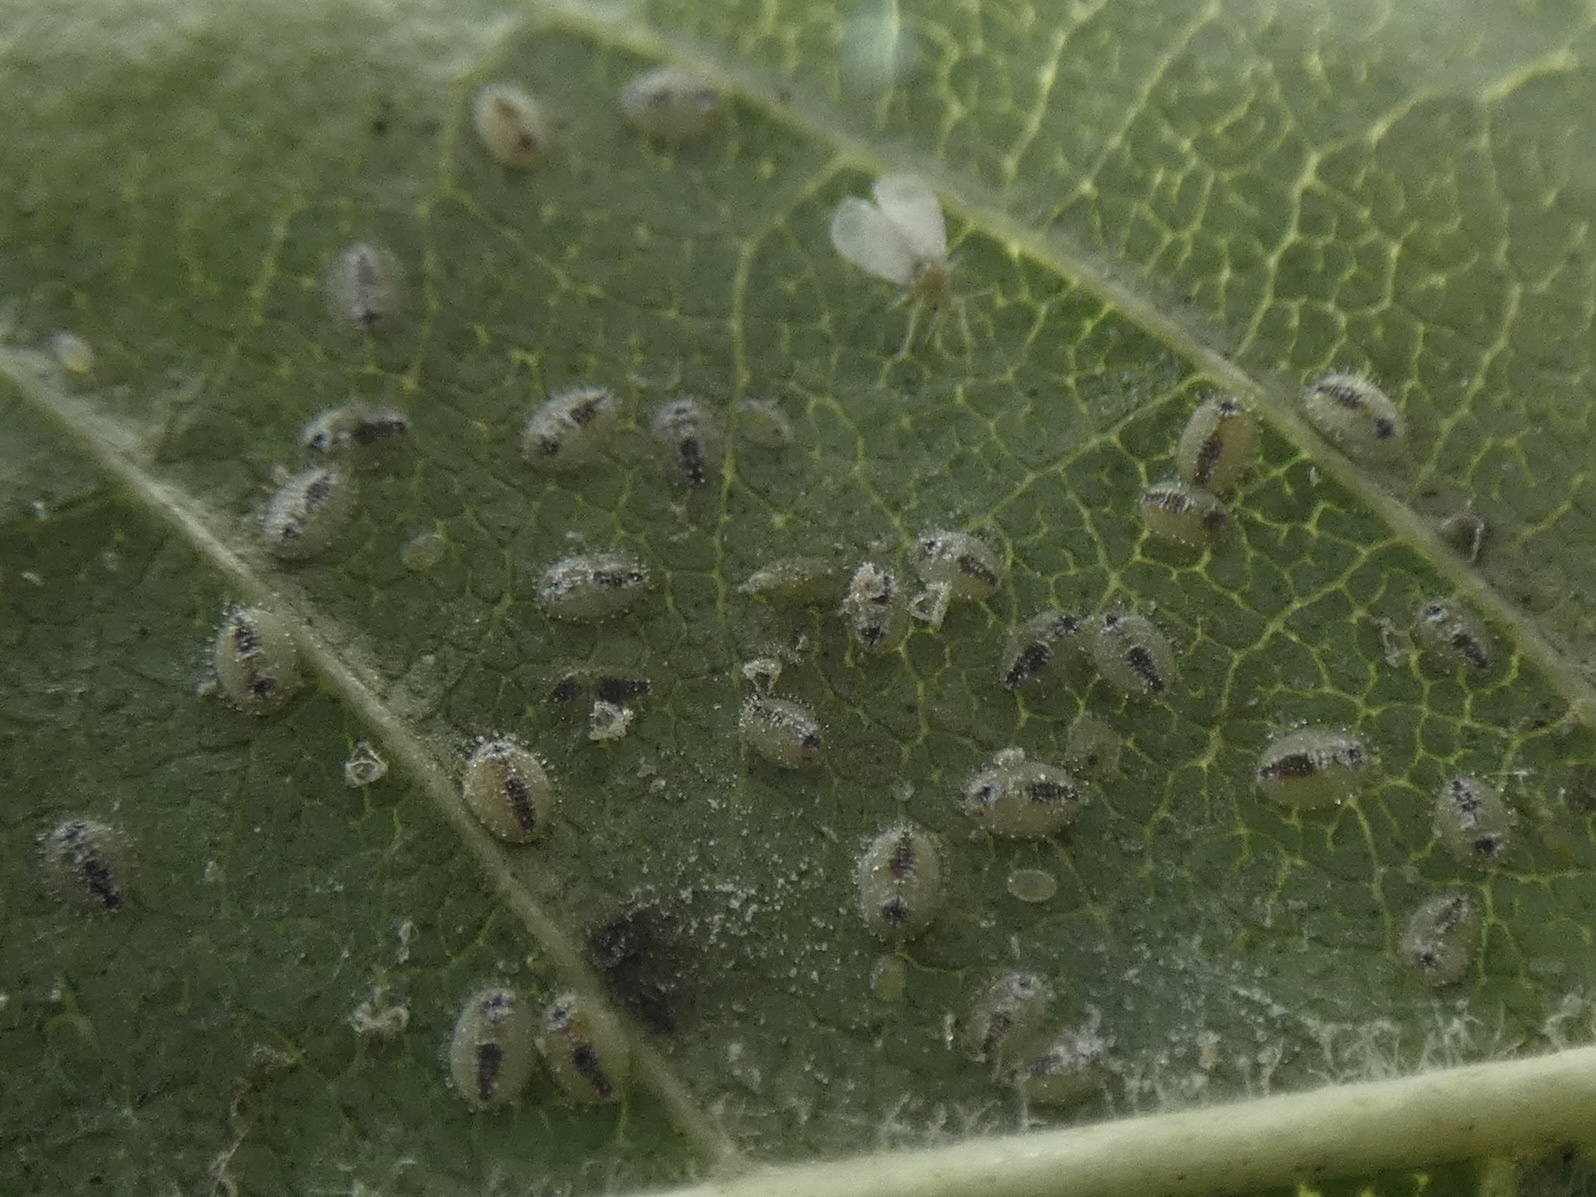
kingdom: Animalia
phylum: Arthropoda
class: Insecta
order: Hemiptera
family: Aleyrodidae
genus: Siphoninus
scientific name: Siphoninus phillyreae
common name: Ash whitefly
